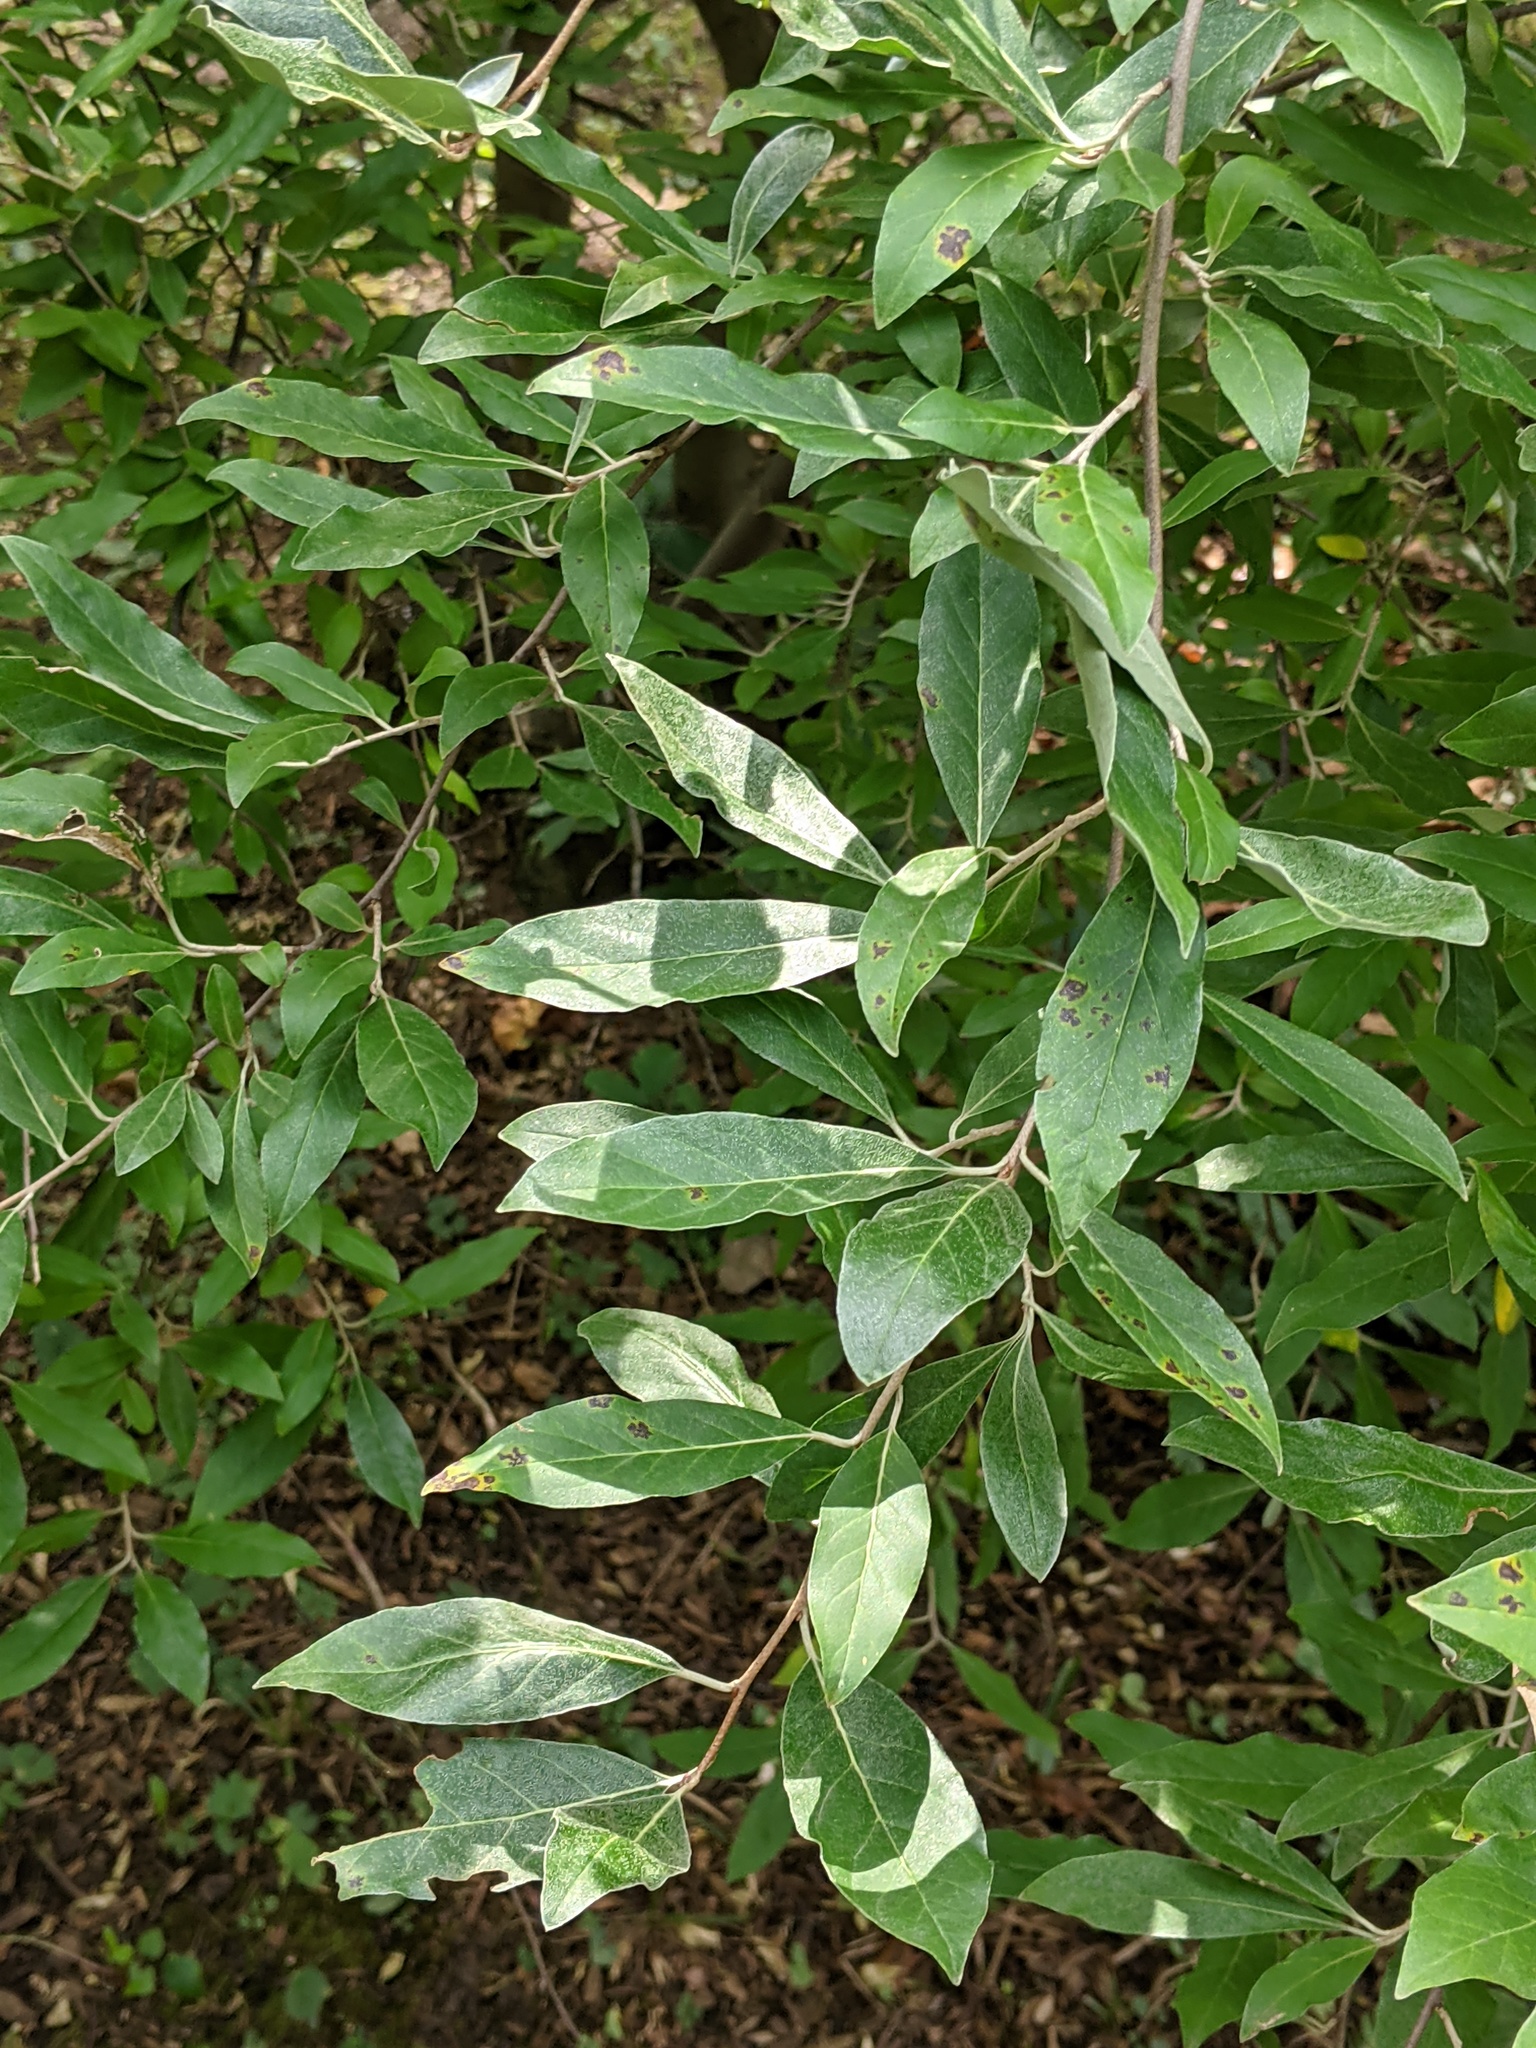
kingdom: Plantae
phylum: Tracheophyta
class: Magnoliopsida
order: Rosales
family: Elaeagnaceae
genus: Elaeagnus
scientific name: Elaeagnus umbellata
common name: Autumn olive
